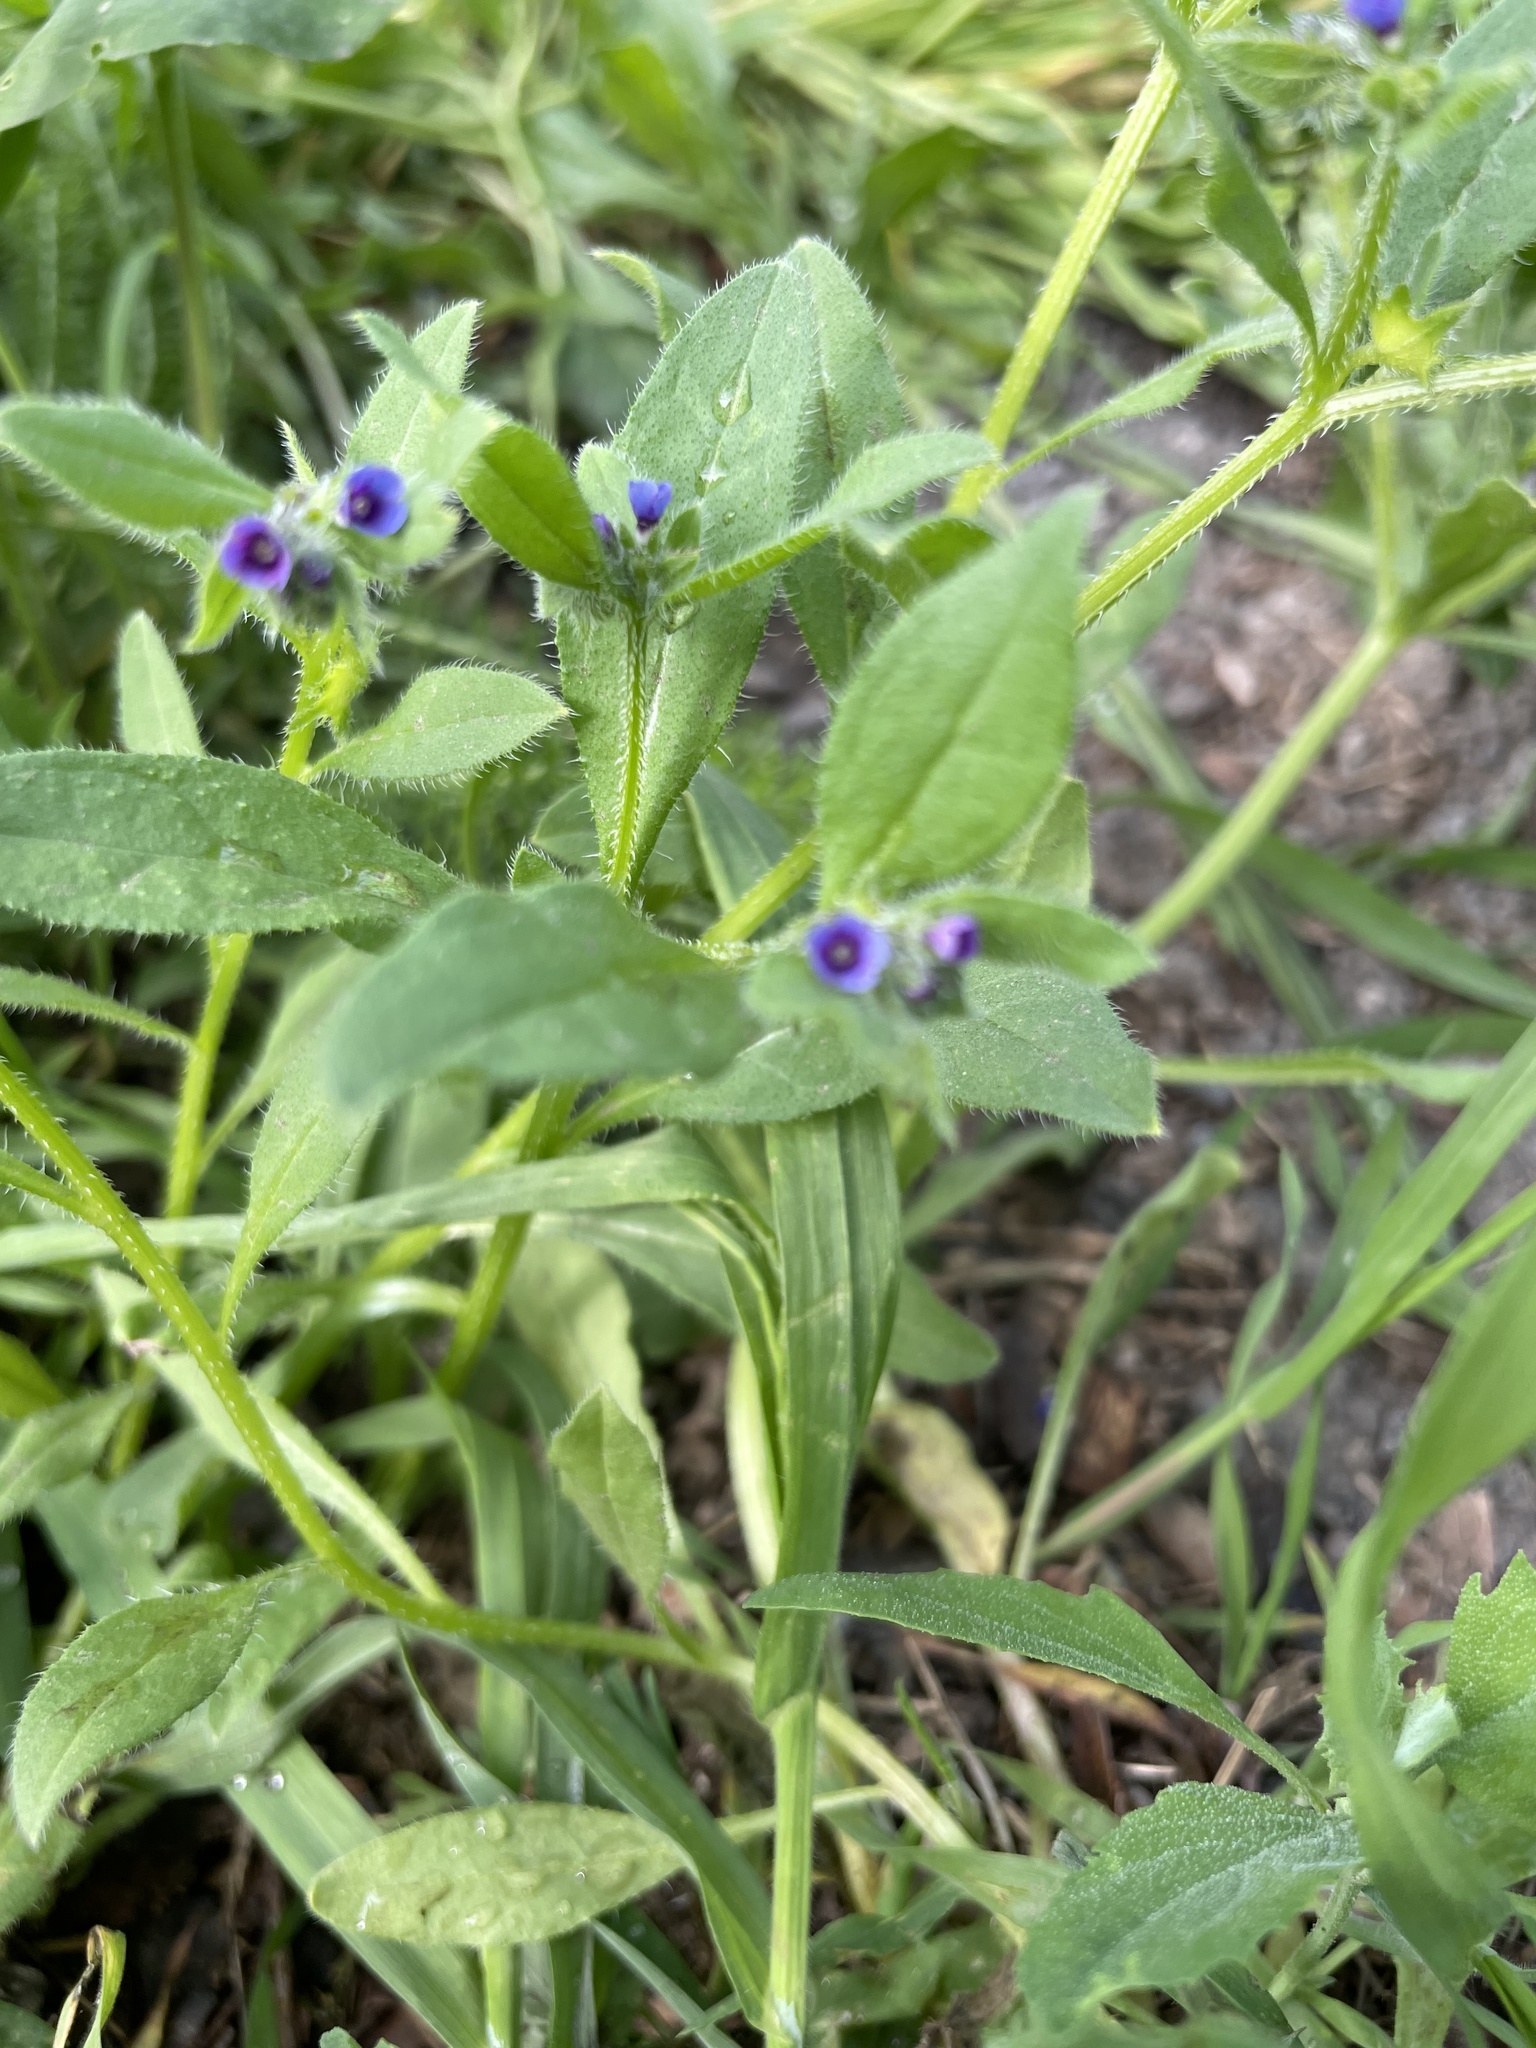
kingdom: Plantae
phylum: Tracheophyta
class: Magnoliopsida
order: Boraginales
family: Boraginaceae
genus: Asperugo
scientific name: Asperugo procumbens
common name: Madwort
